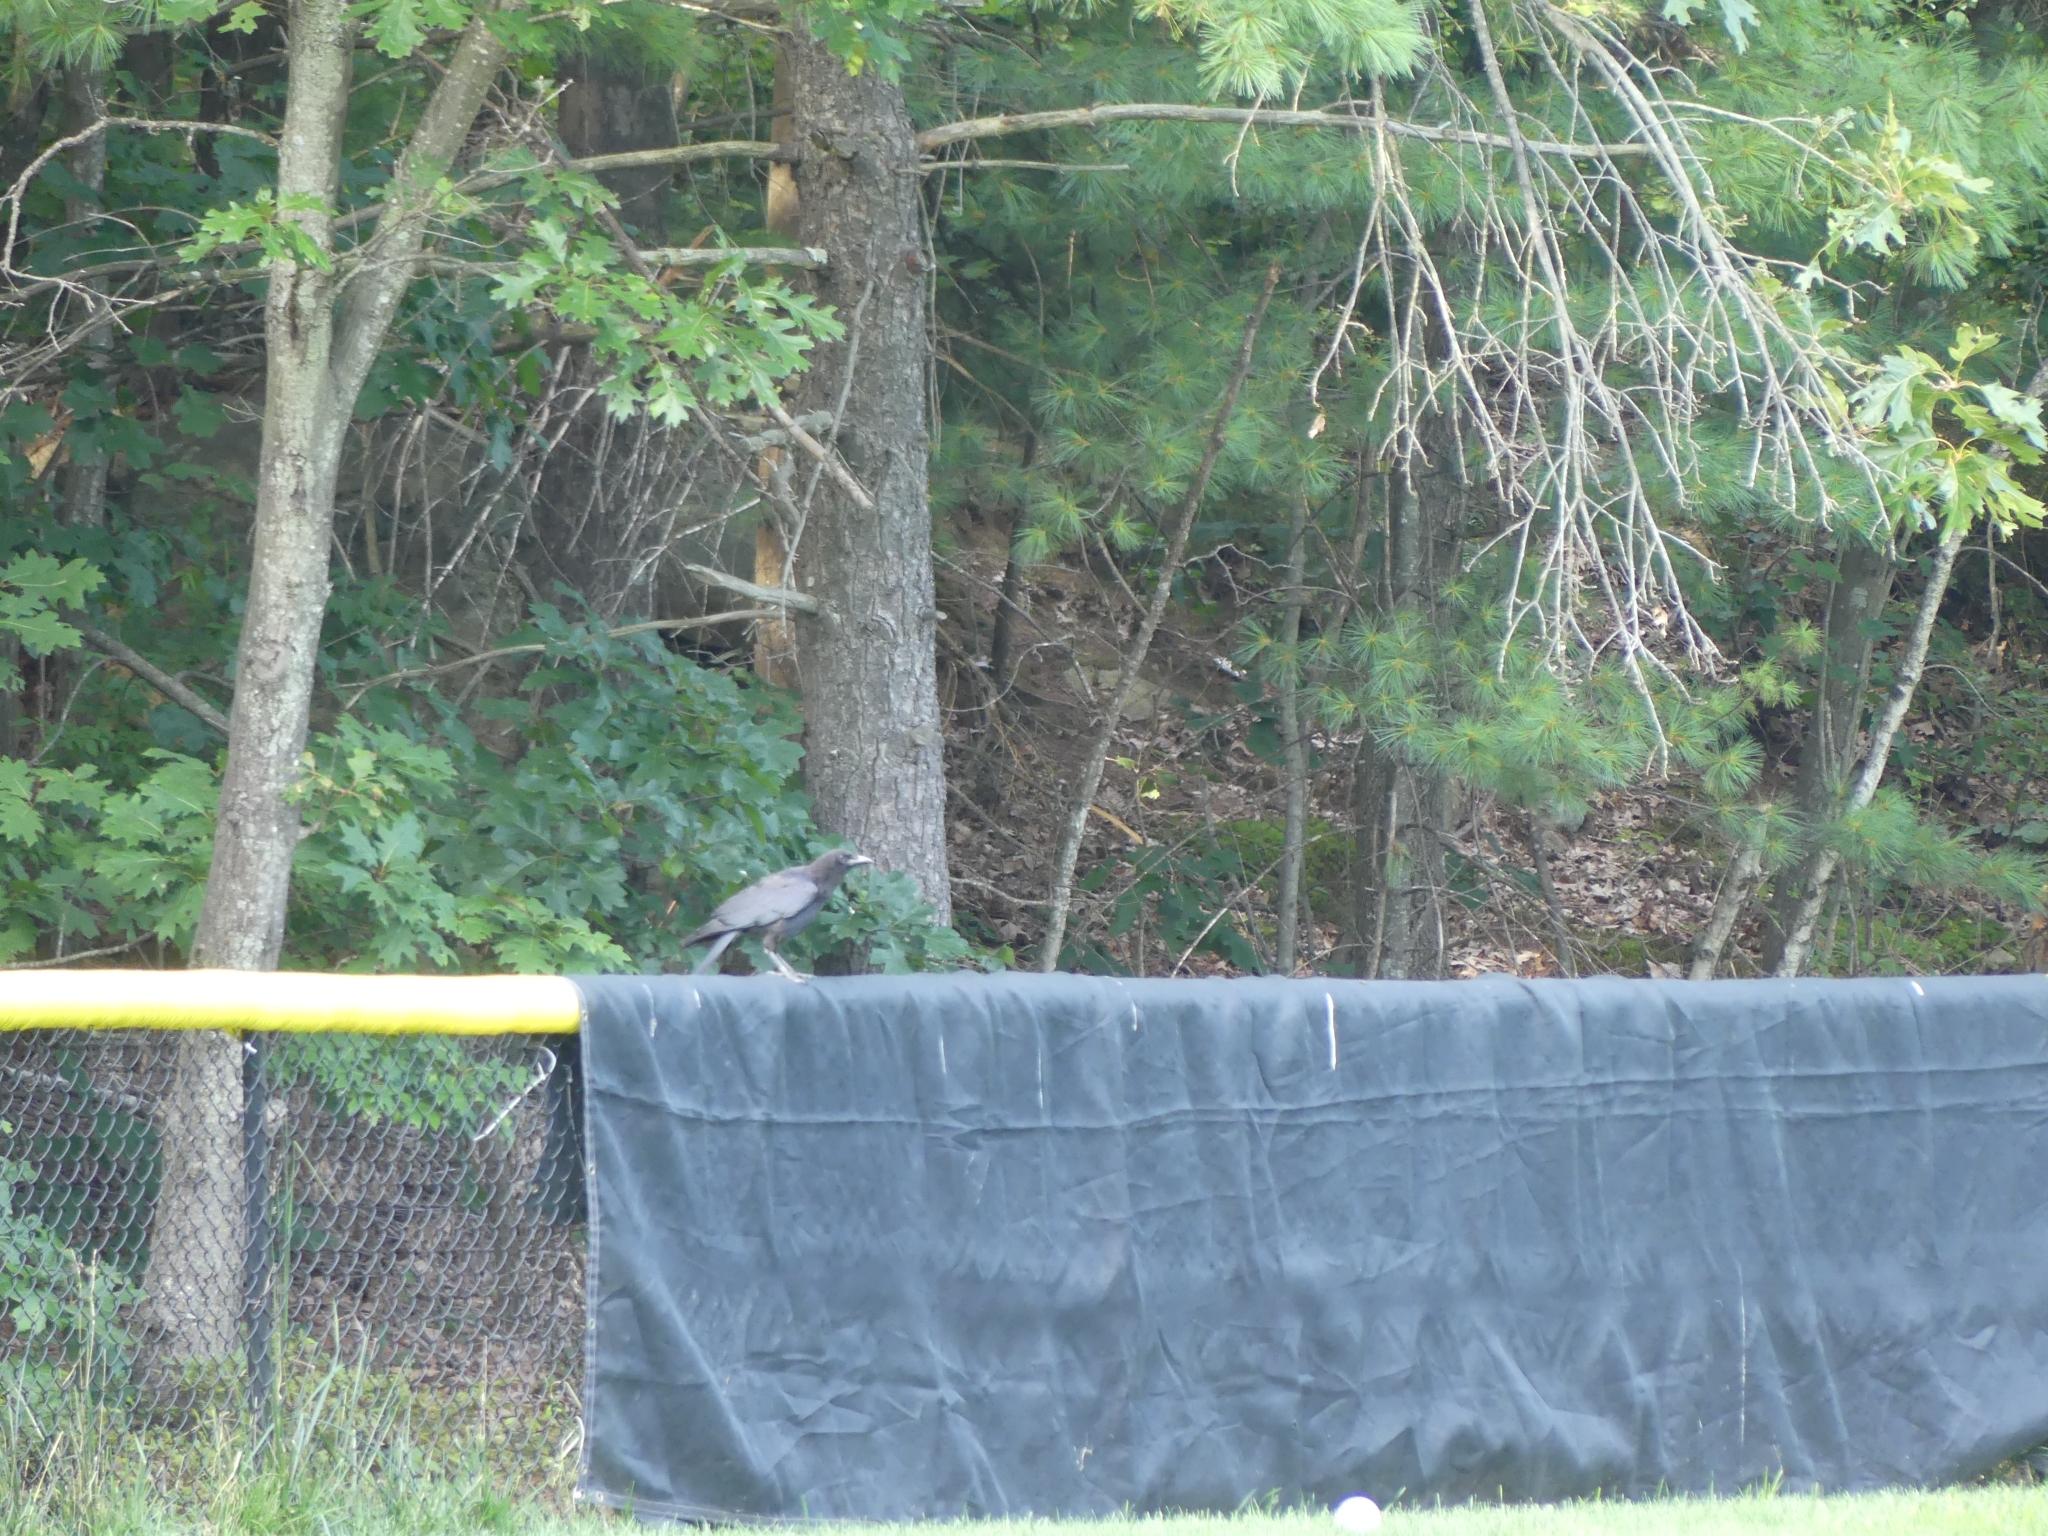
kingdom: Animalia
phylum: Chordata
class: Aves
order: Passeriformes
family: Corvidae
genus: Corvus
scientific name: Corvus brachyrhynchos
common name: American crow
